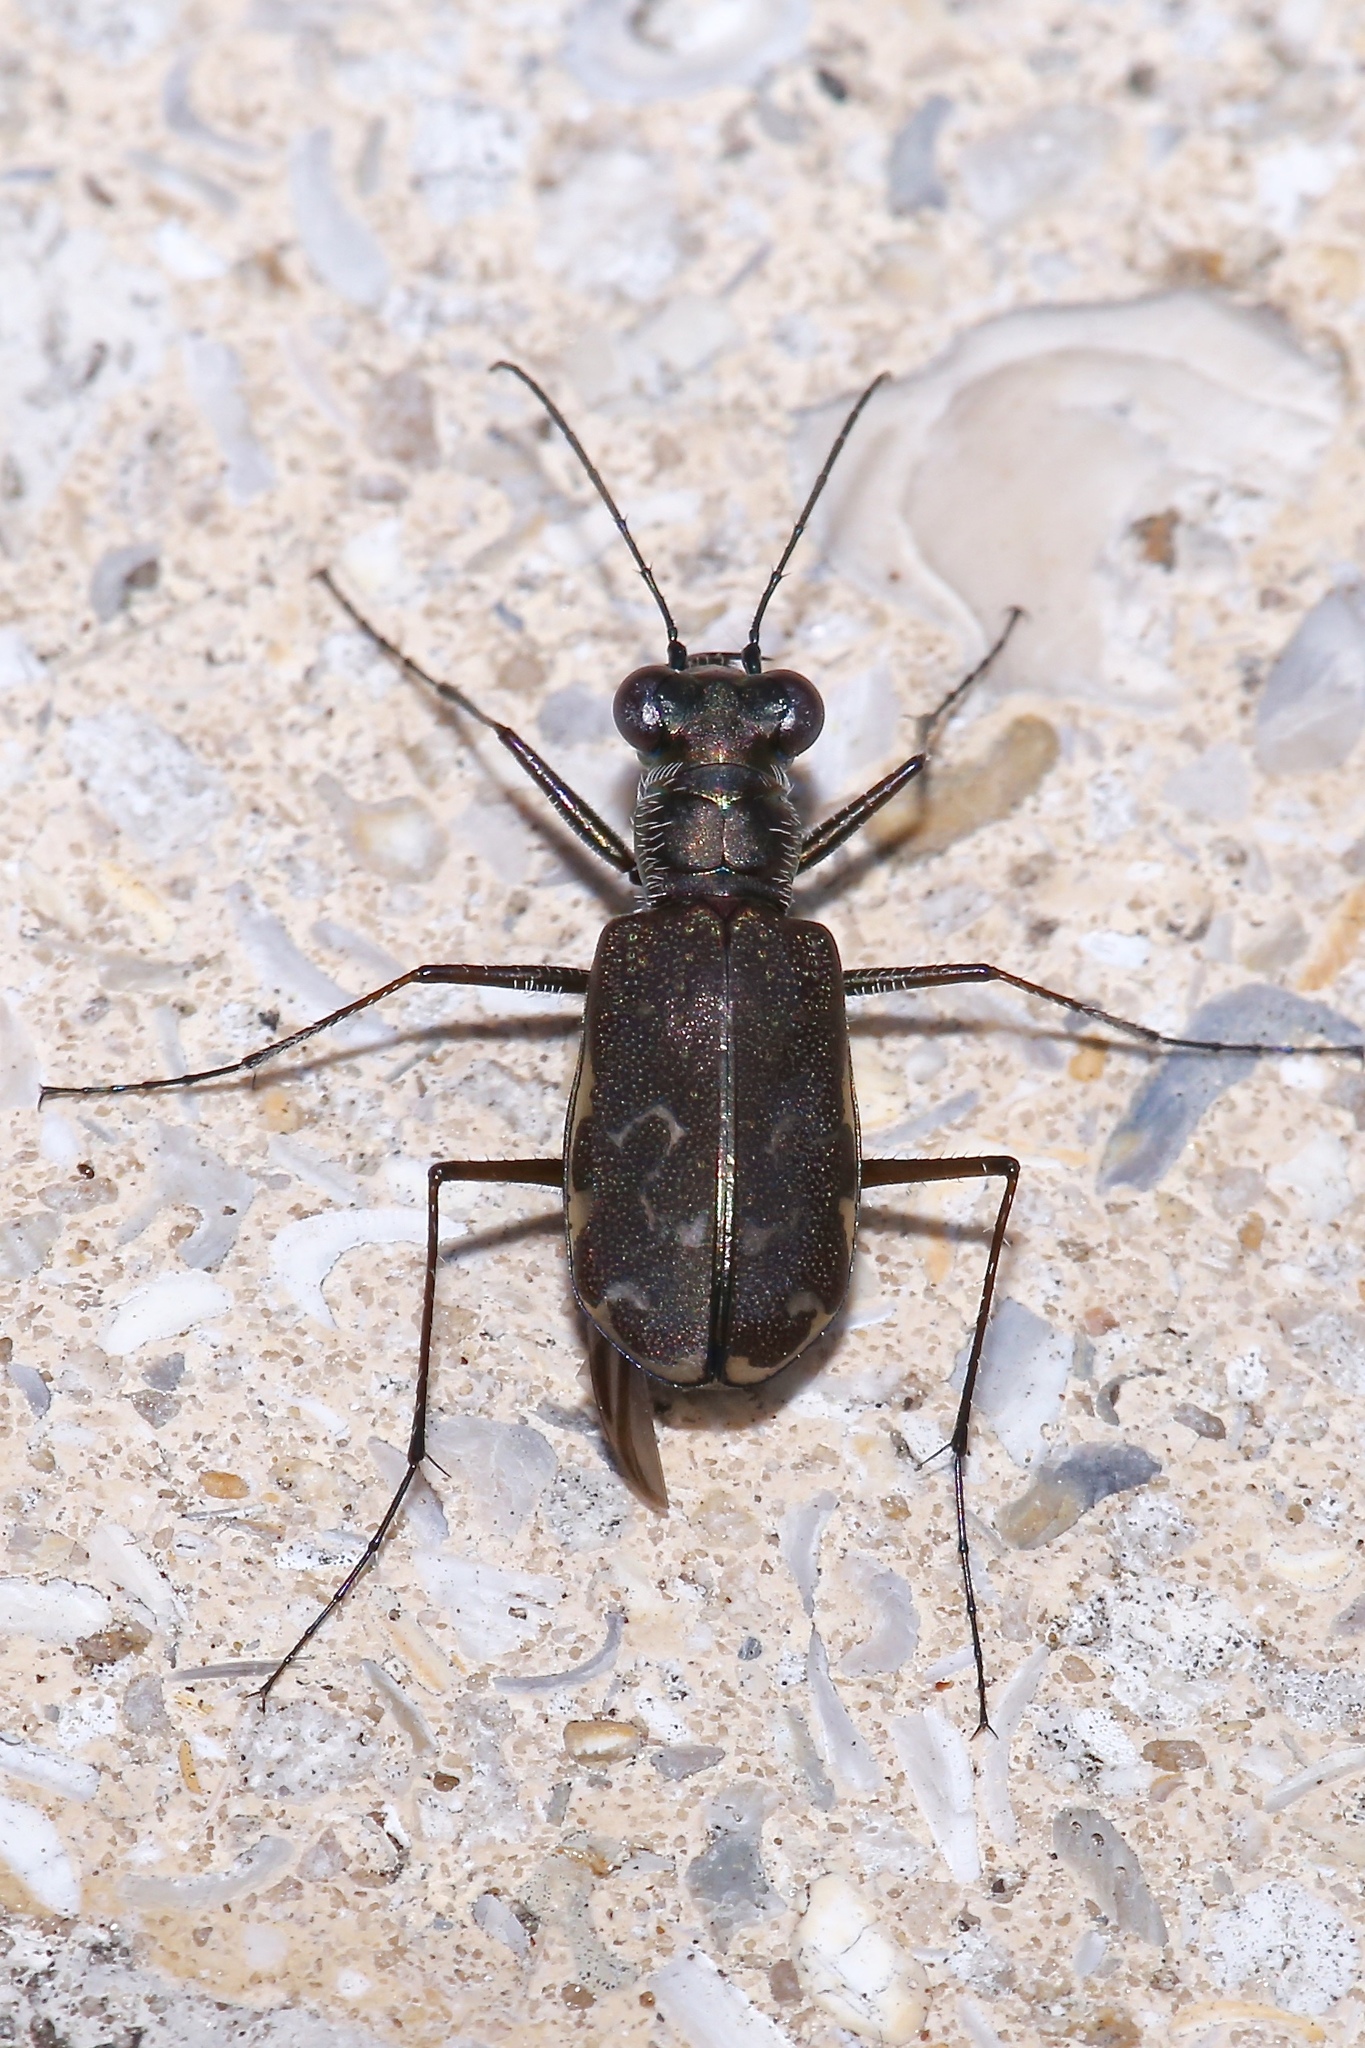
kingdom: Animalia
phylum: Arthropoda
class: Insecta
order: Coleoptera
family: Carabidae
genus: Cicindela
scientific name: Cicindela trifasciata
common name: Mudflat tiger beetle
